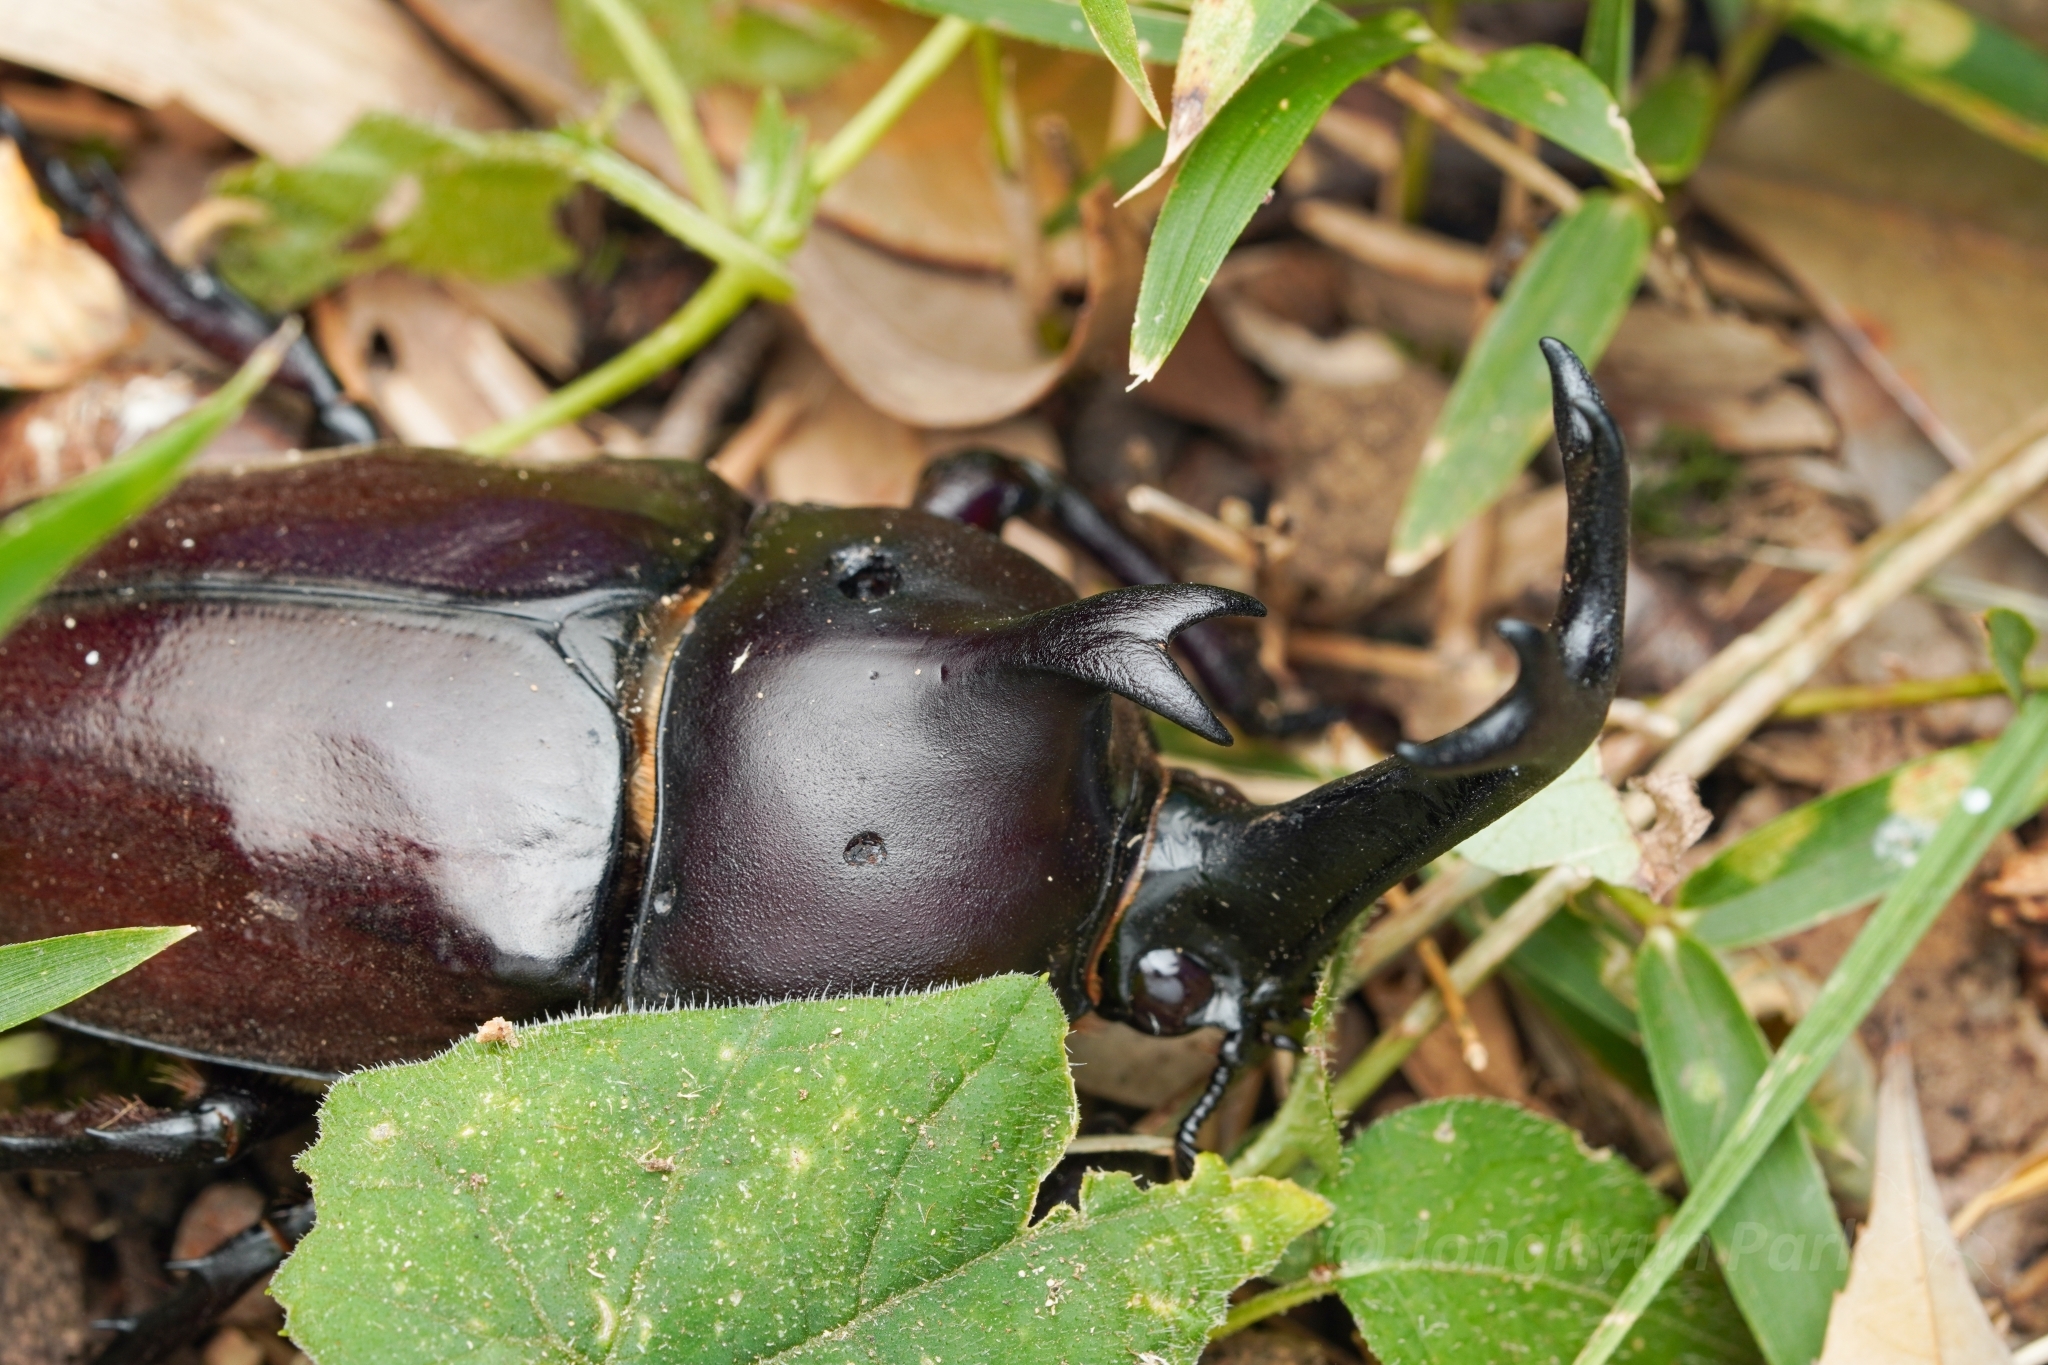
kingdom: Animalia
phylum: Arthropoda
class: Insecta
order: Coleoptera
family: Scarabaeidae
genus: Trypoxylus
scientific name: Trypoxylus dichotomus
